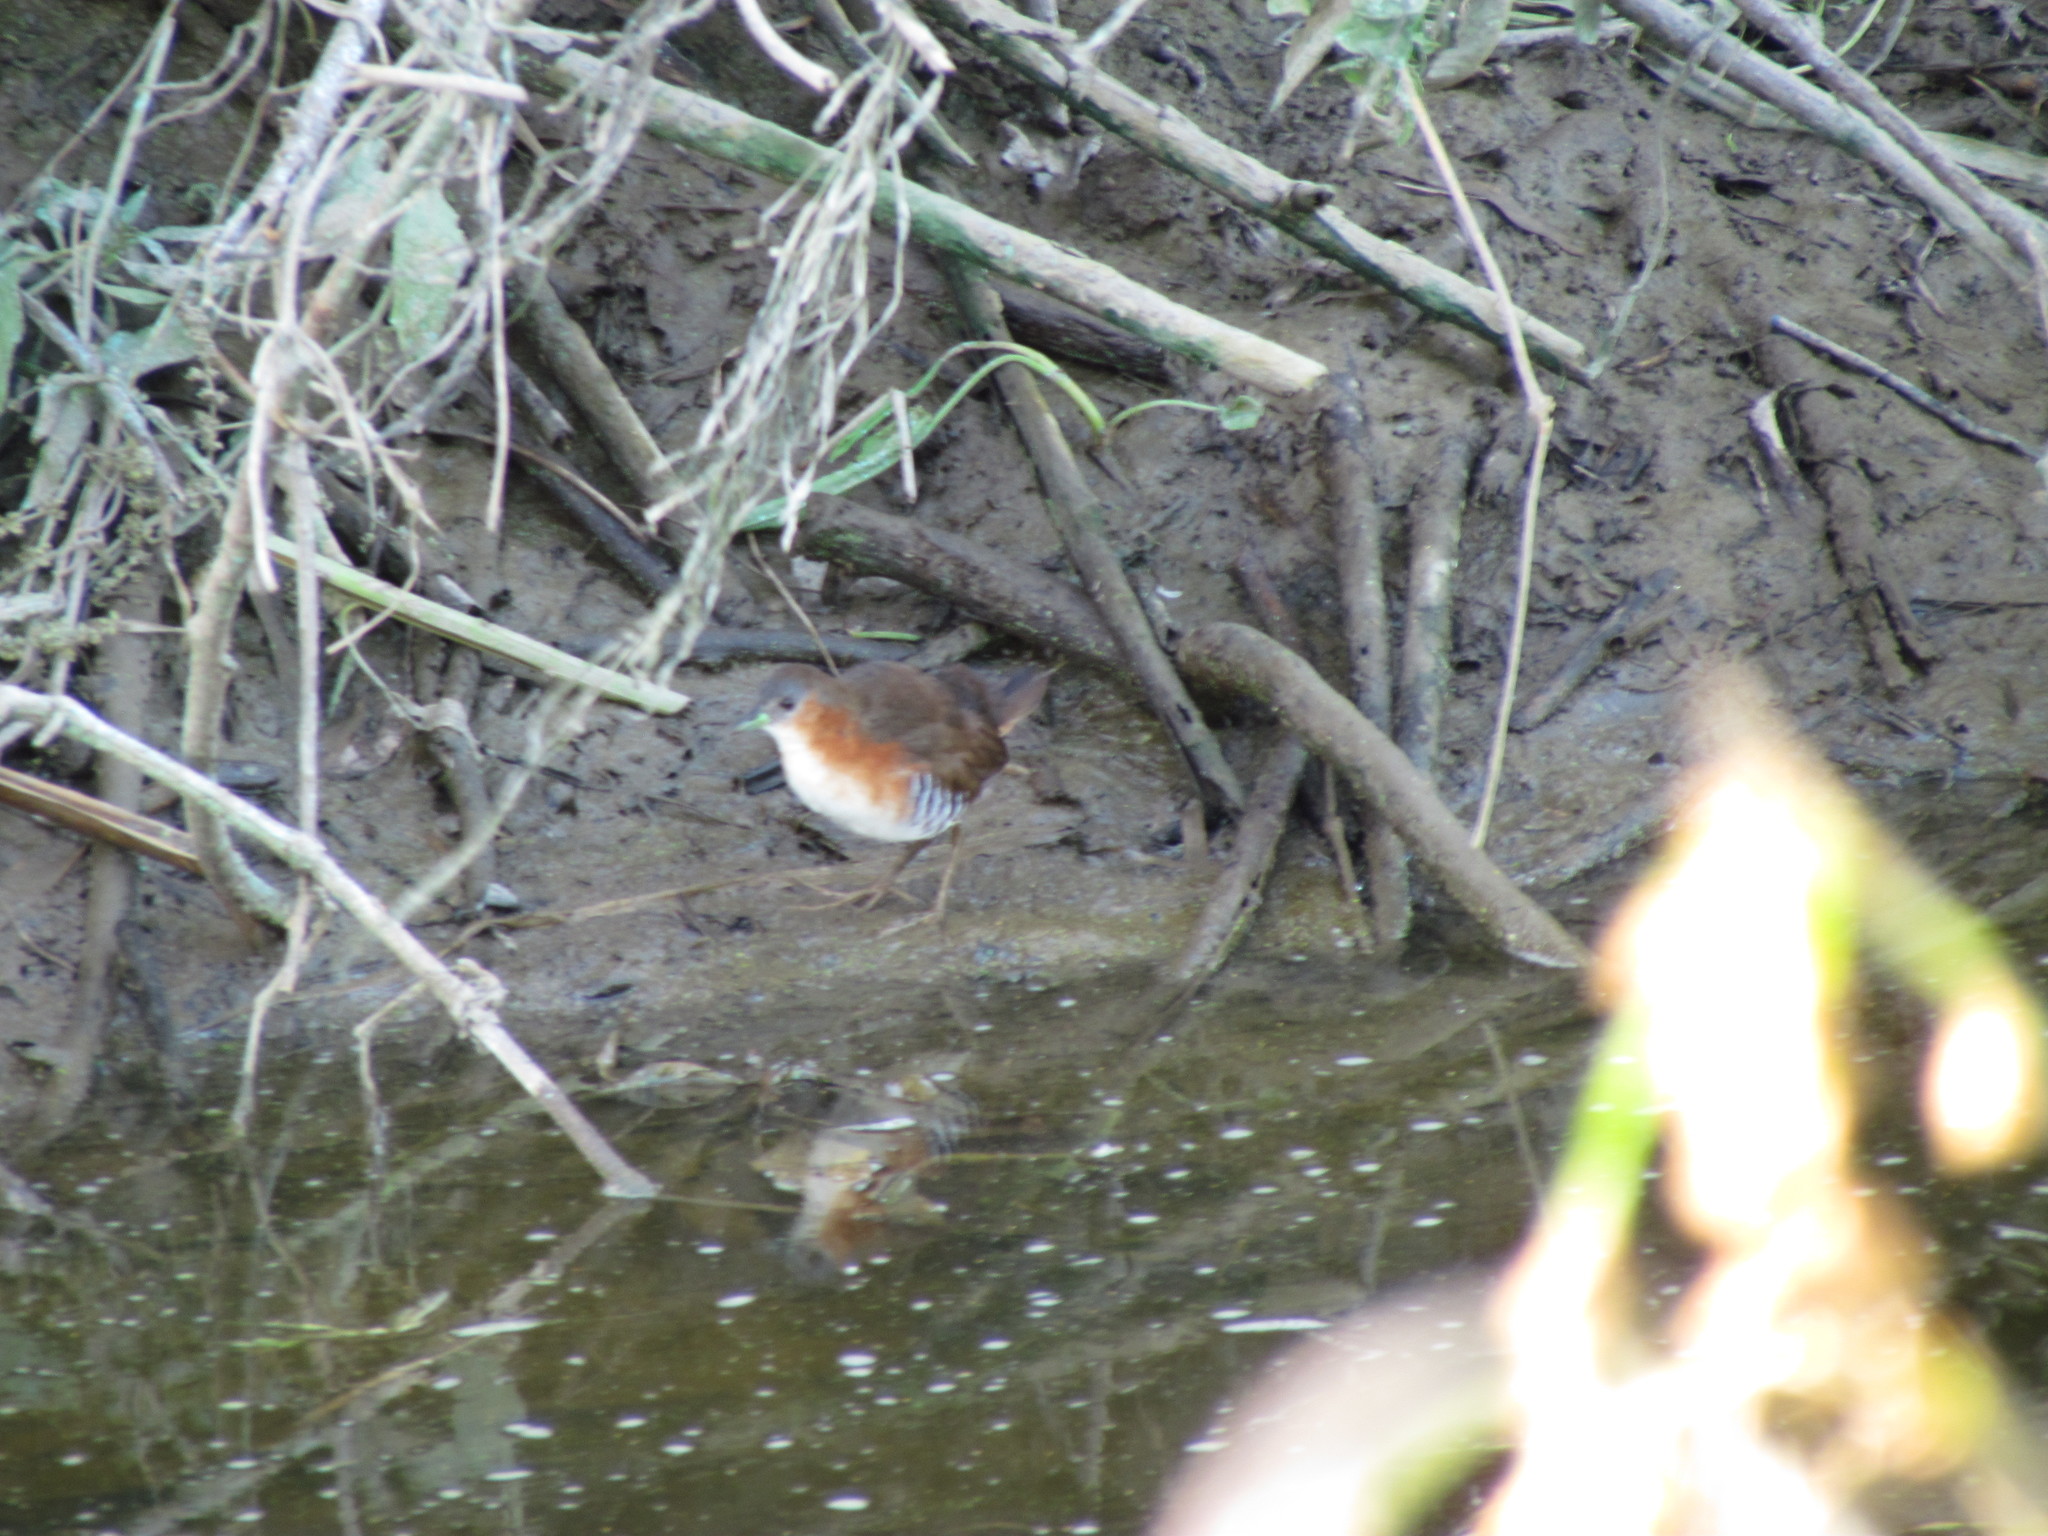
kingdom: Animalia
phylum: Chordata
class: Aves
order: Gruiformes
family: Rallidae
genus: Laterallus
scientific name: Laterallus melanophaius
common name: Rufous-sided crake
